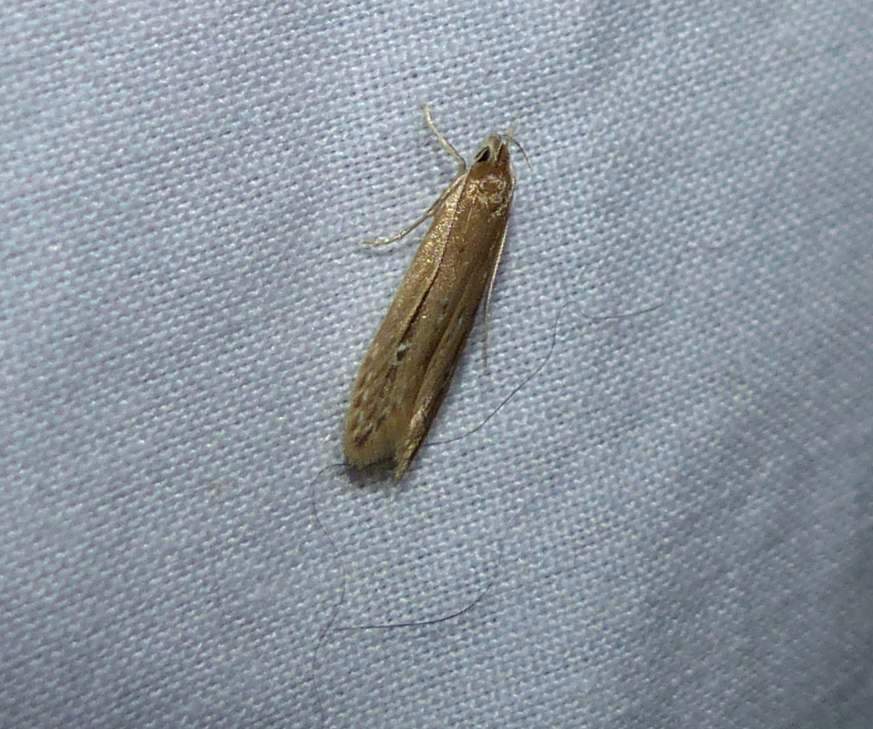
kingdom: Animalia
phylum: Arthropoda
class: Insecta
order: Lepidoptera
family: Cosmopterigidae
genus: Limnaecia
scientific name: Limnaecia phragmitella
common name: Bulrush cosmet
